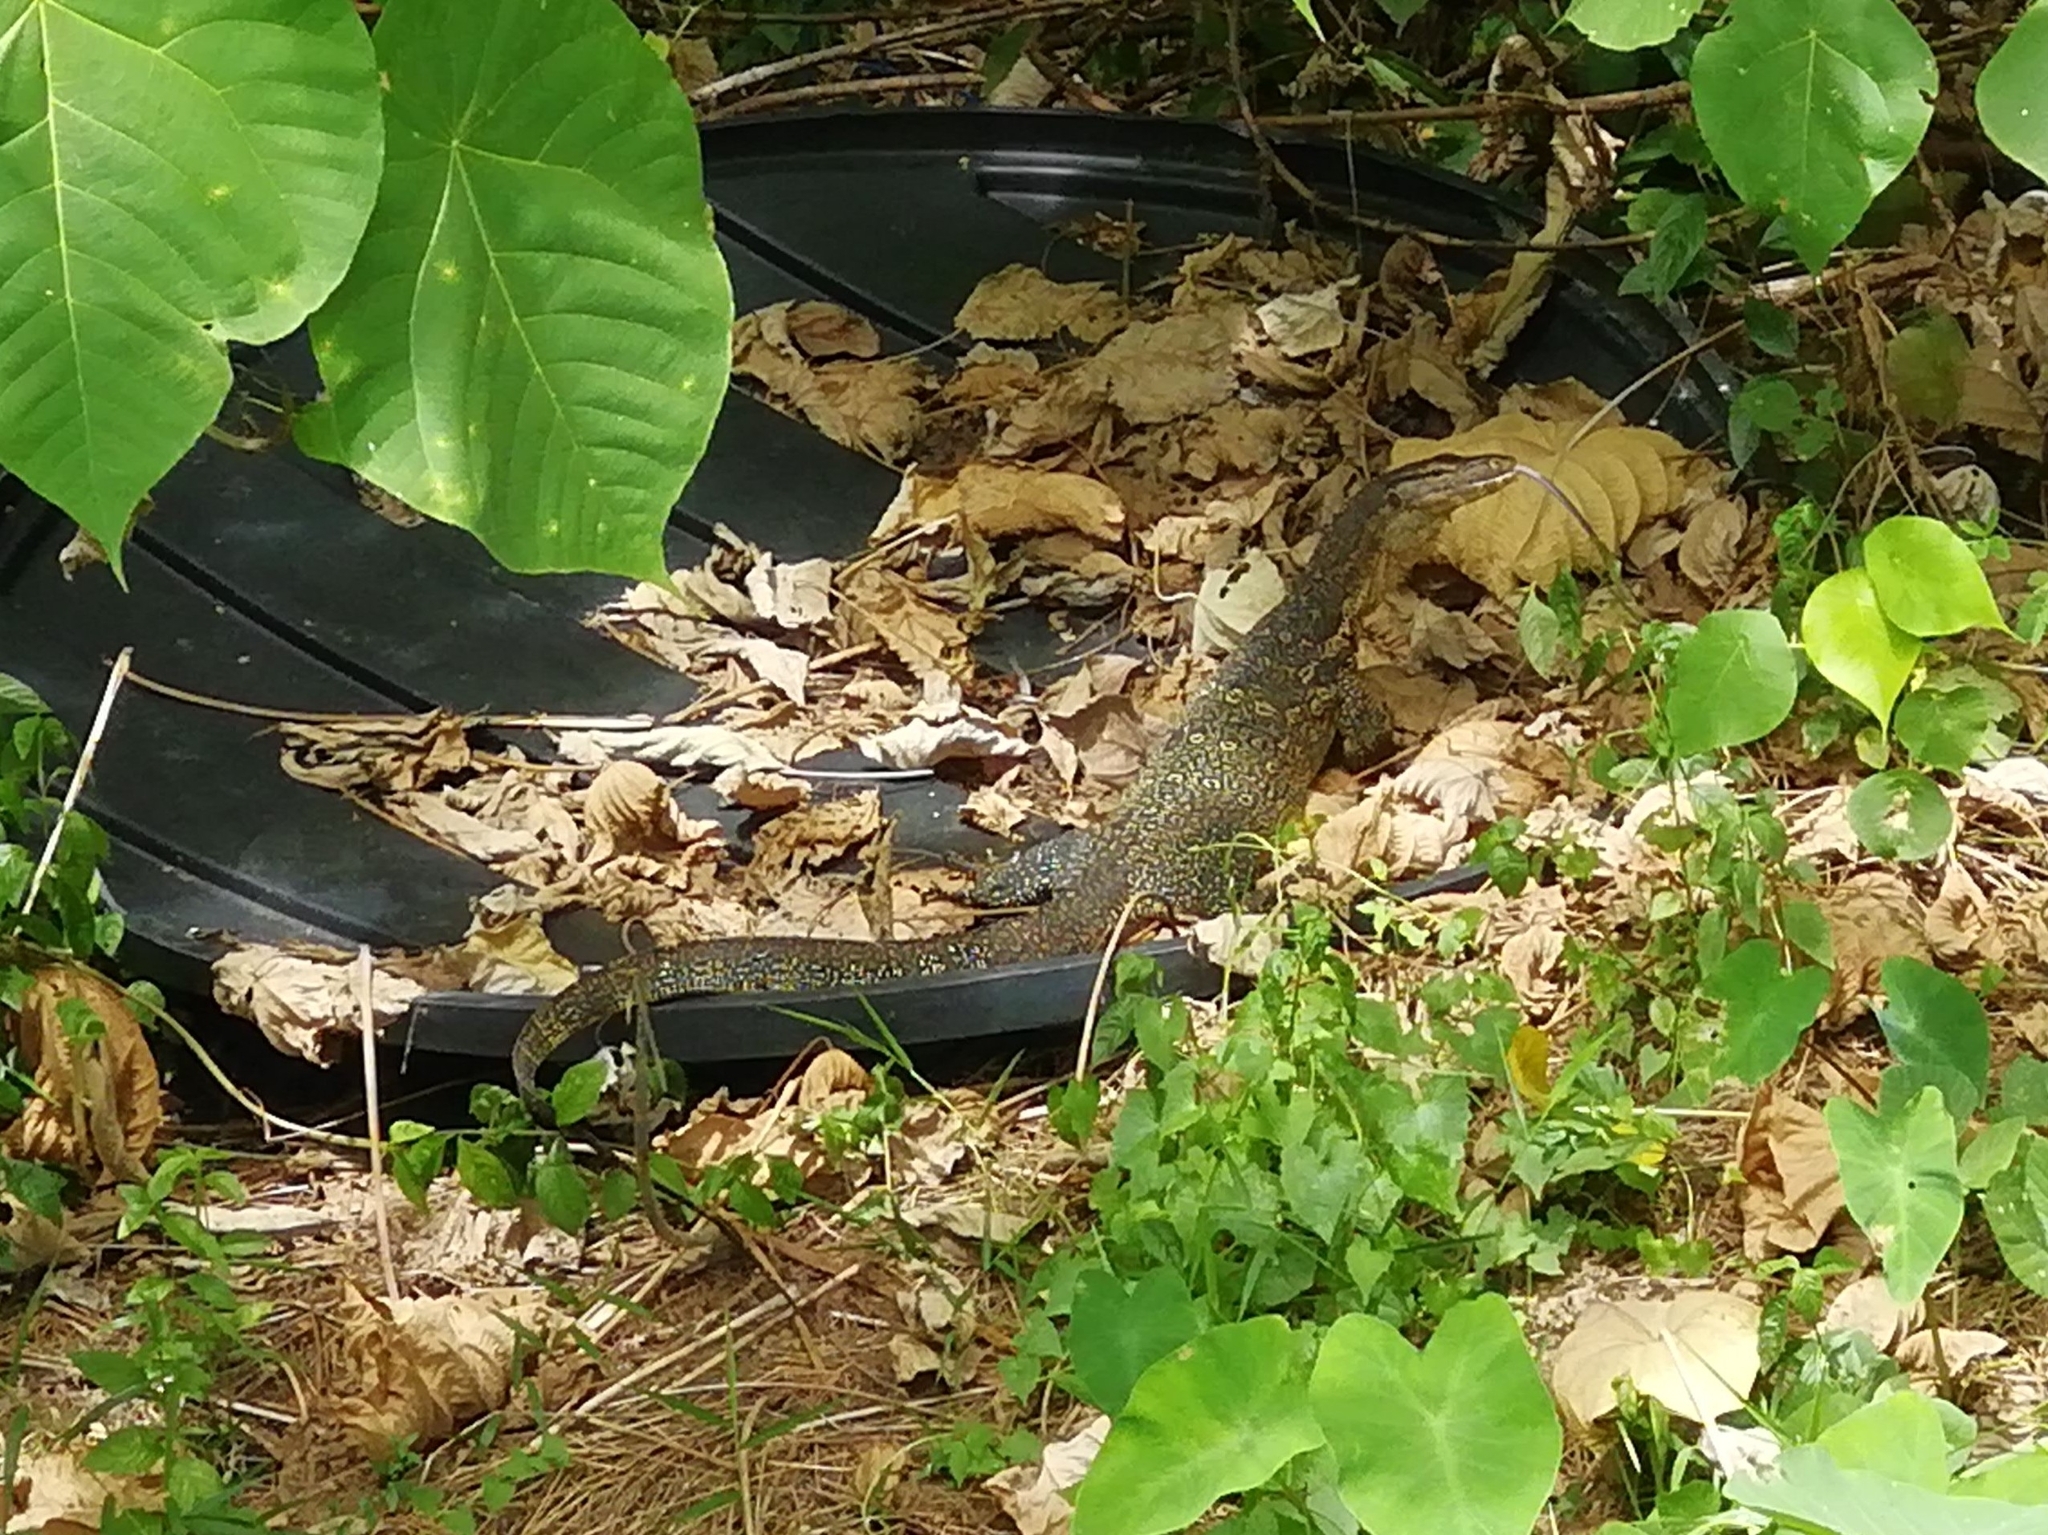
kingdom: Animalia
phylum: Chordata
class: Squamata
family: Varanidae
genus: Varanus
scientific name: Varanus salvator
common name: Common water monitor
